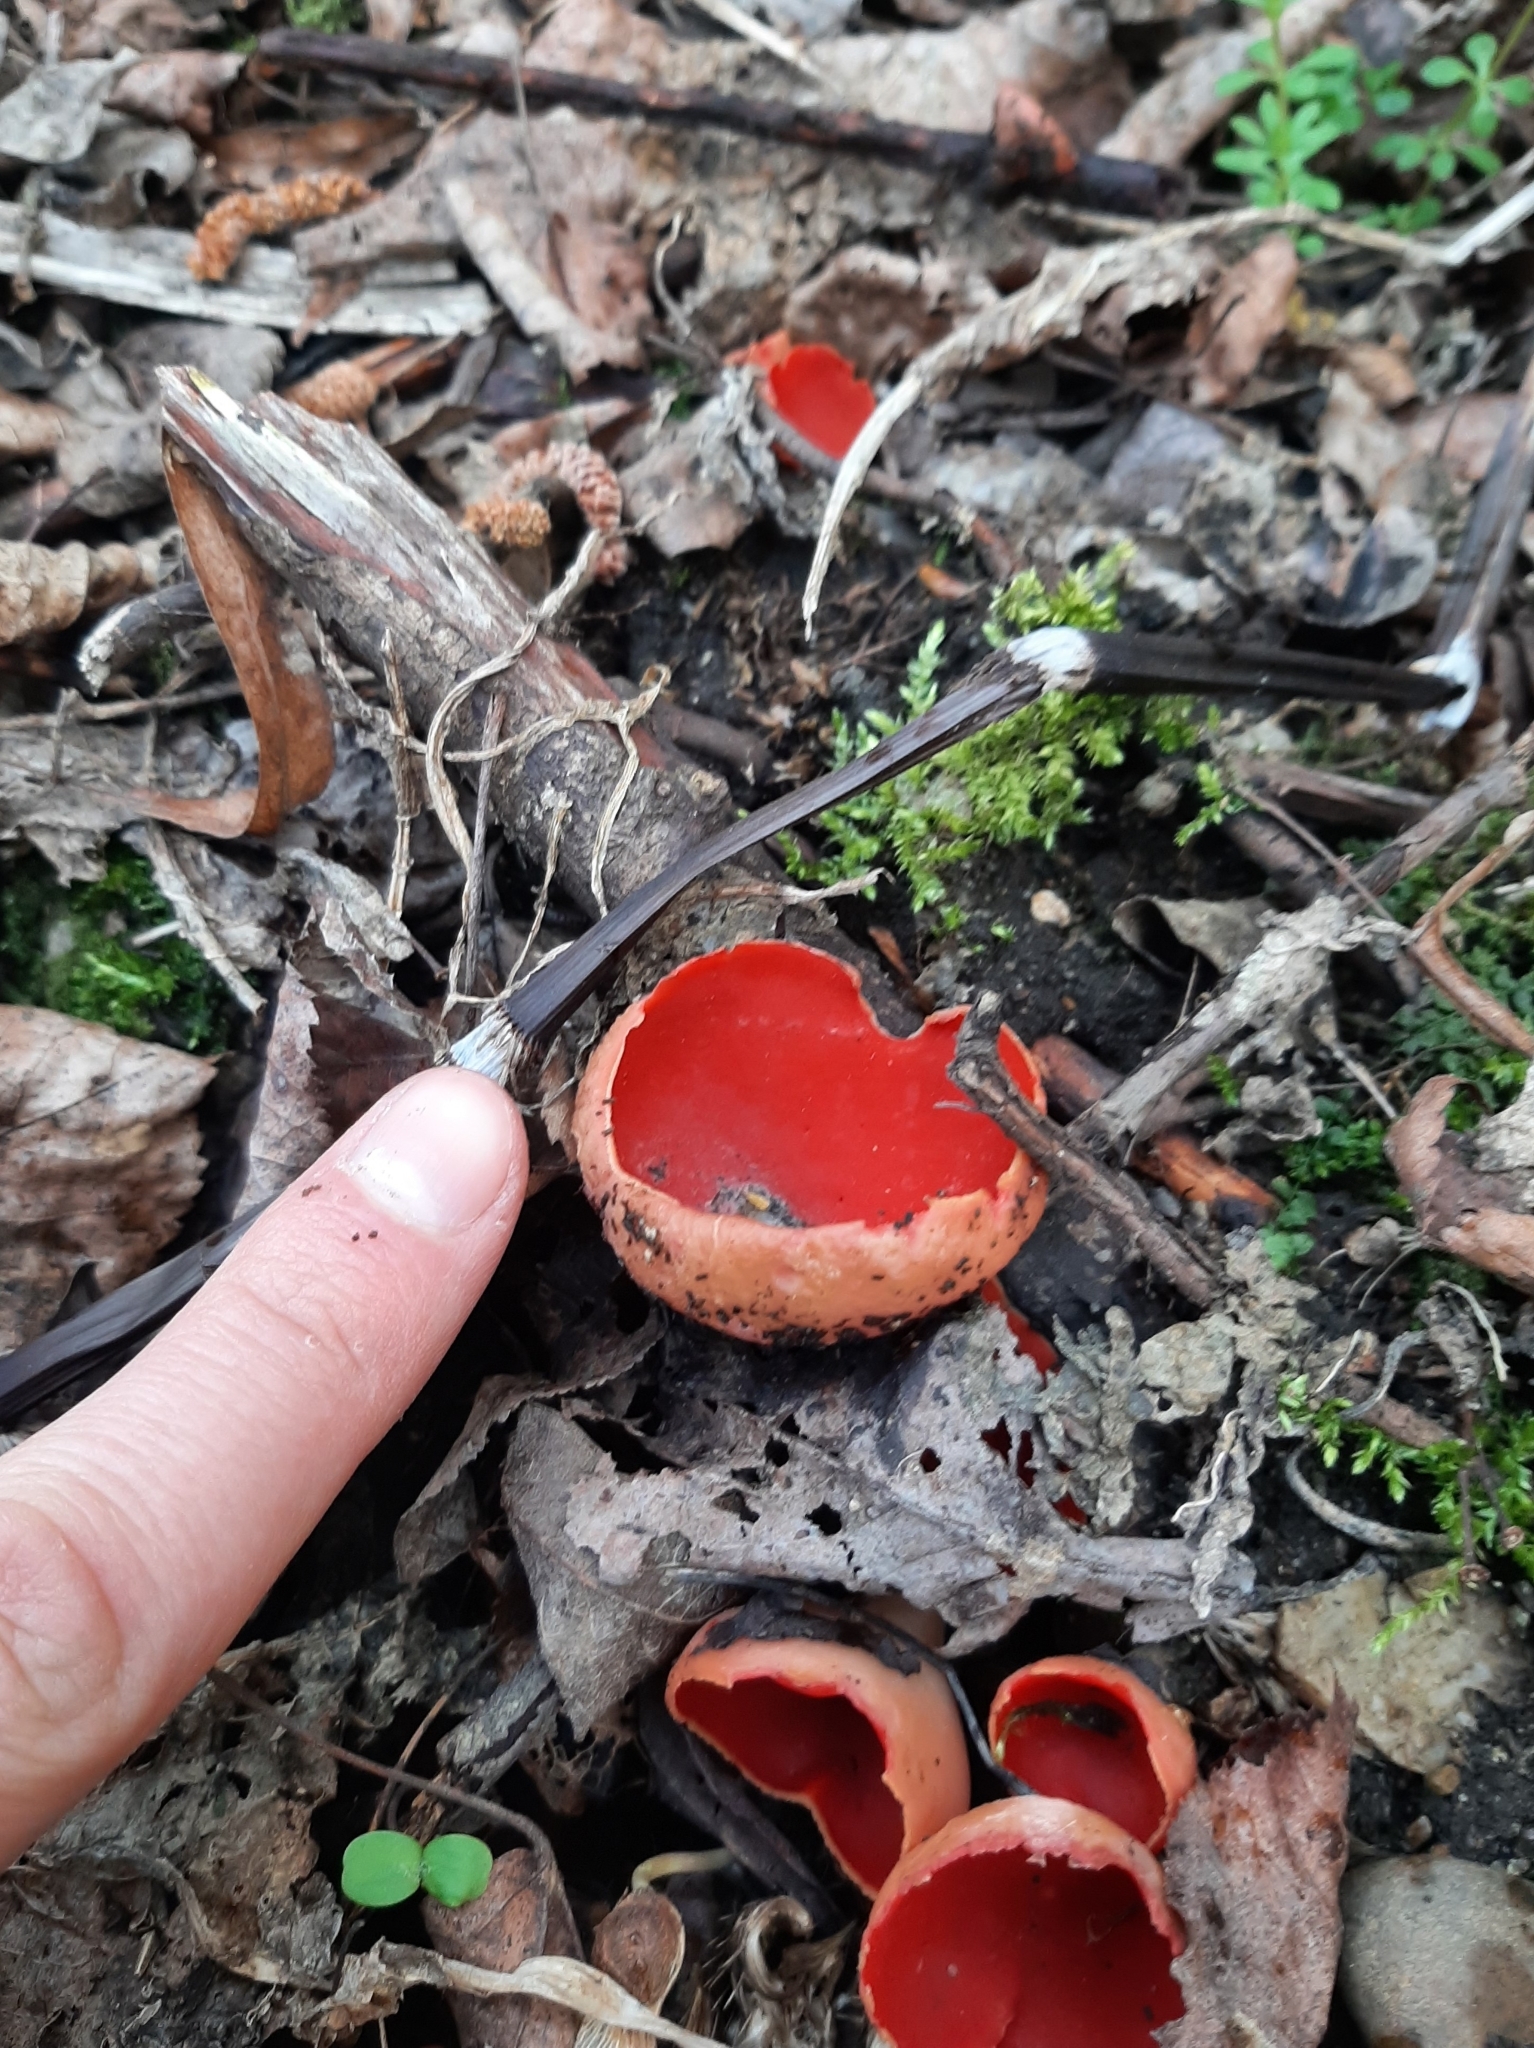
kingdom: Fungi
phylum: Ascomycota
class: Pezizomycetes
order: Pezizales
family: Sarcoscyphaceae
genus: Sarcoscypha
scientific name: Sarcoscypha
